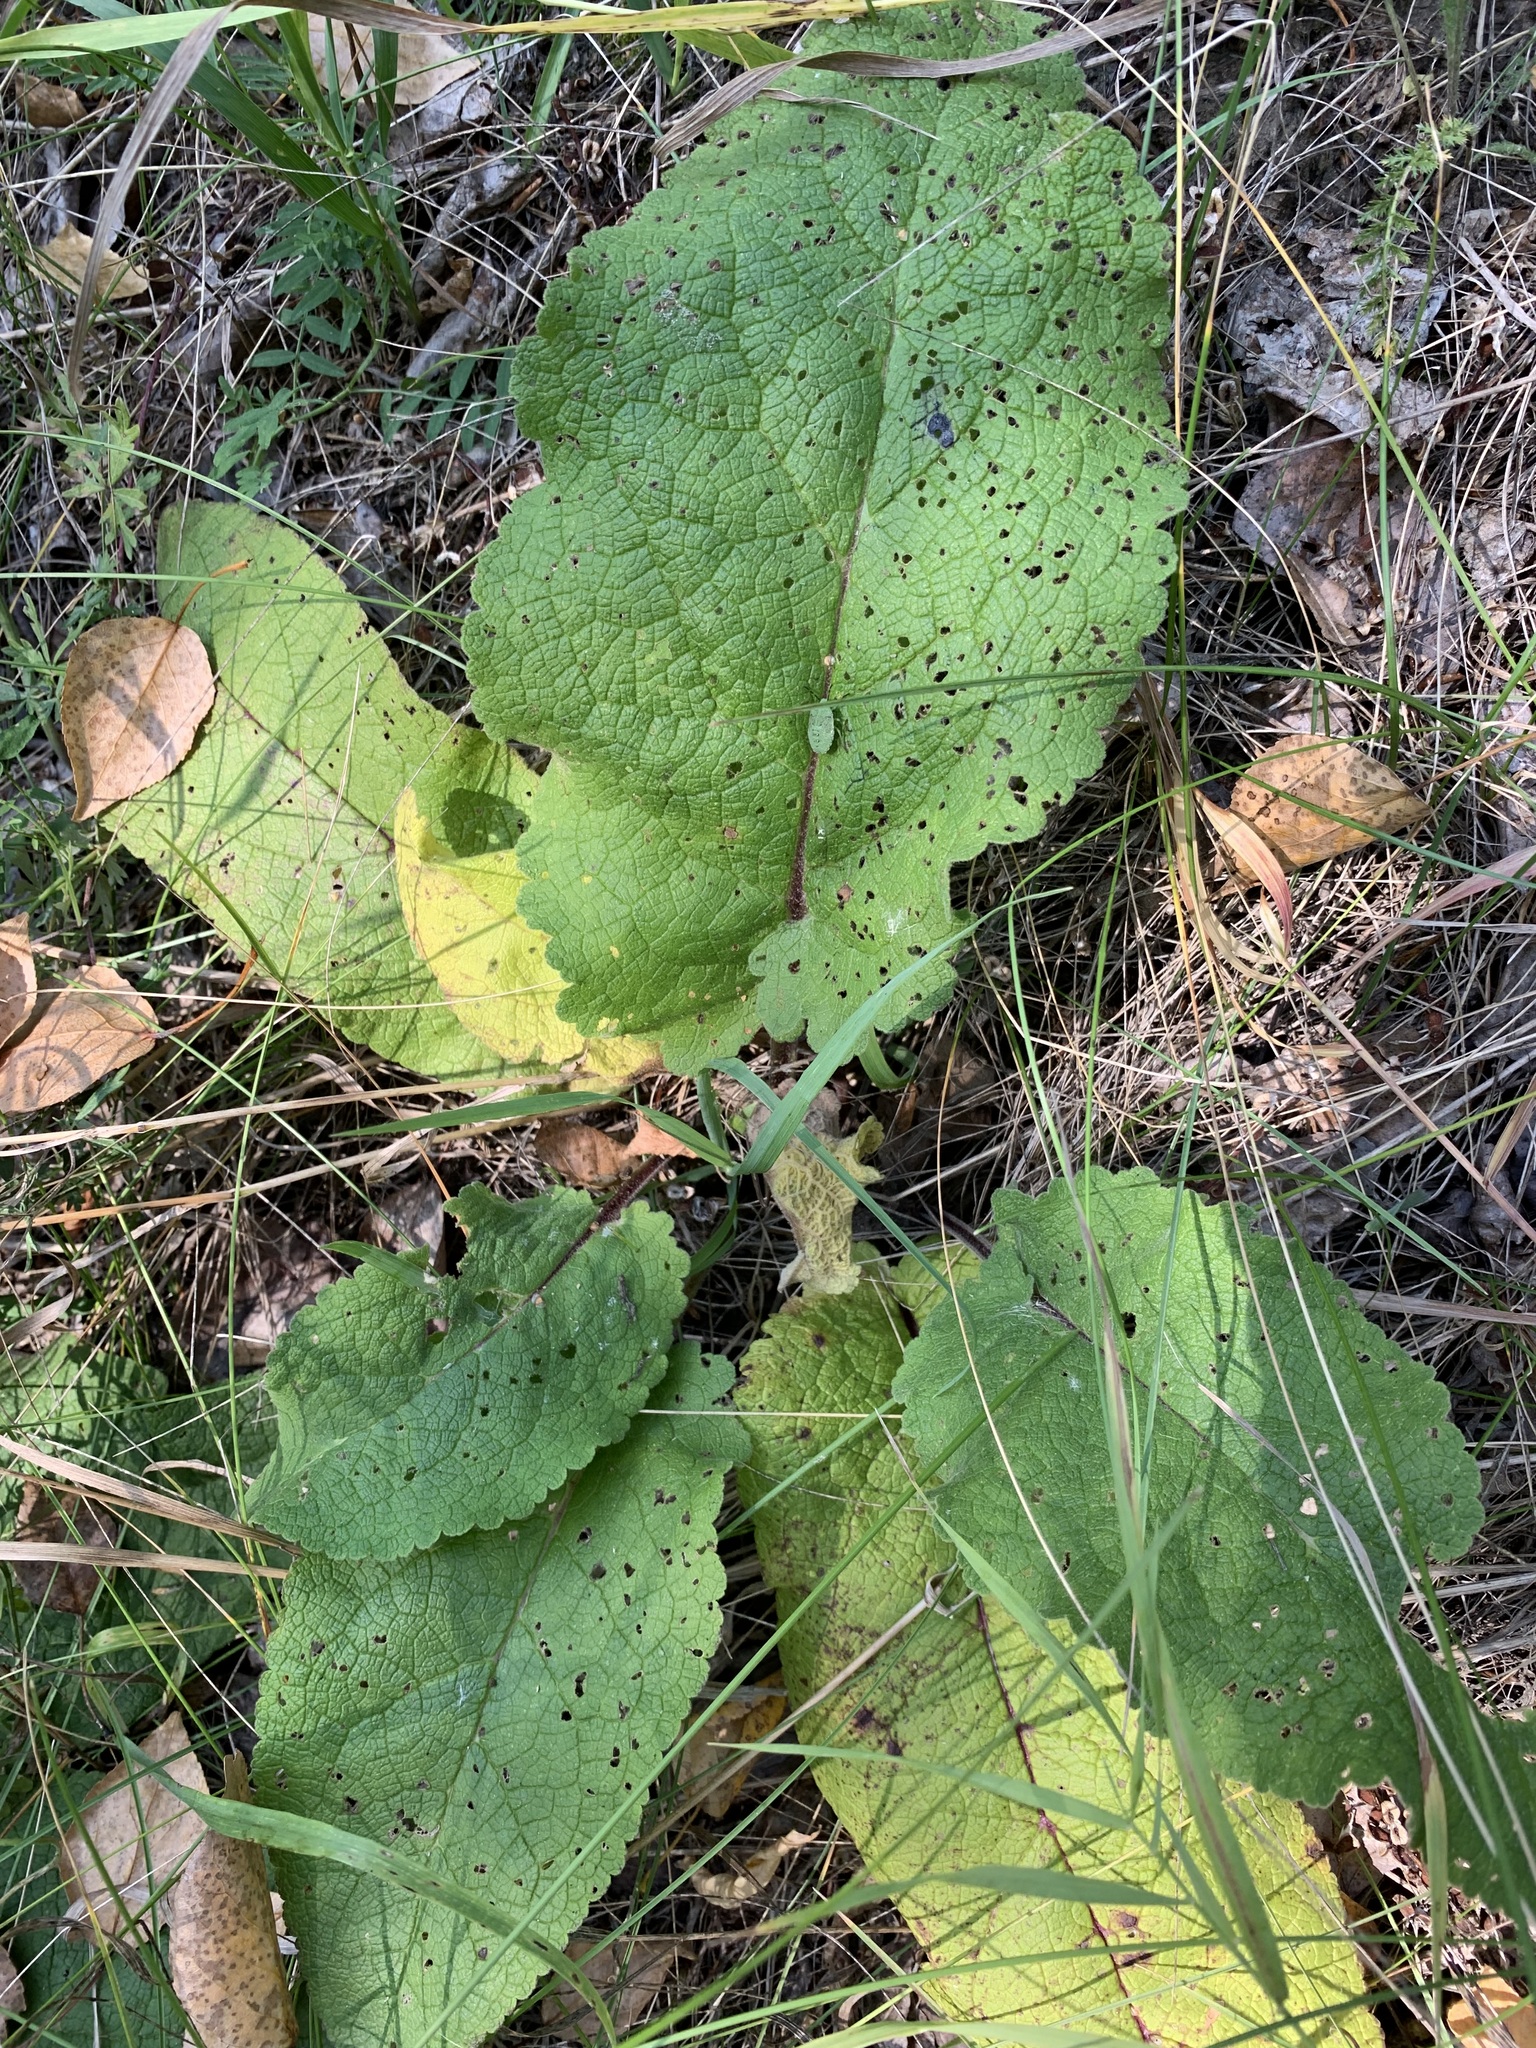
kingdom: Plantae
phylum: Tracheophyta
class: Magnoliopsida
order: Lamiales
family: Scrophulariaceae
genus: Verbascum
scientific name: Verbascum nigrum
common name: Dark mullein
